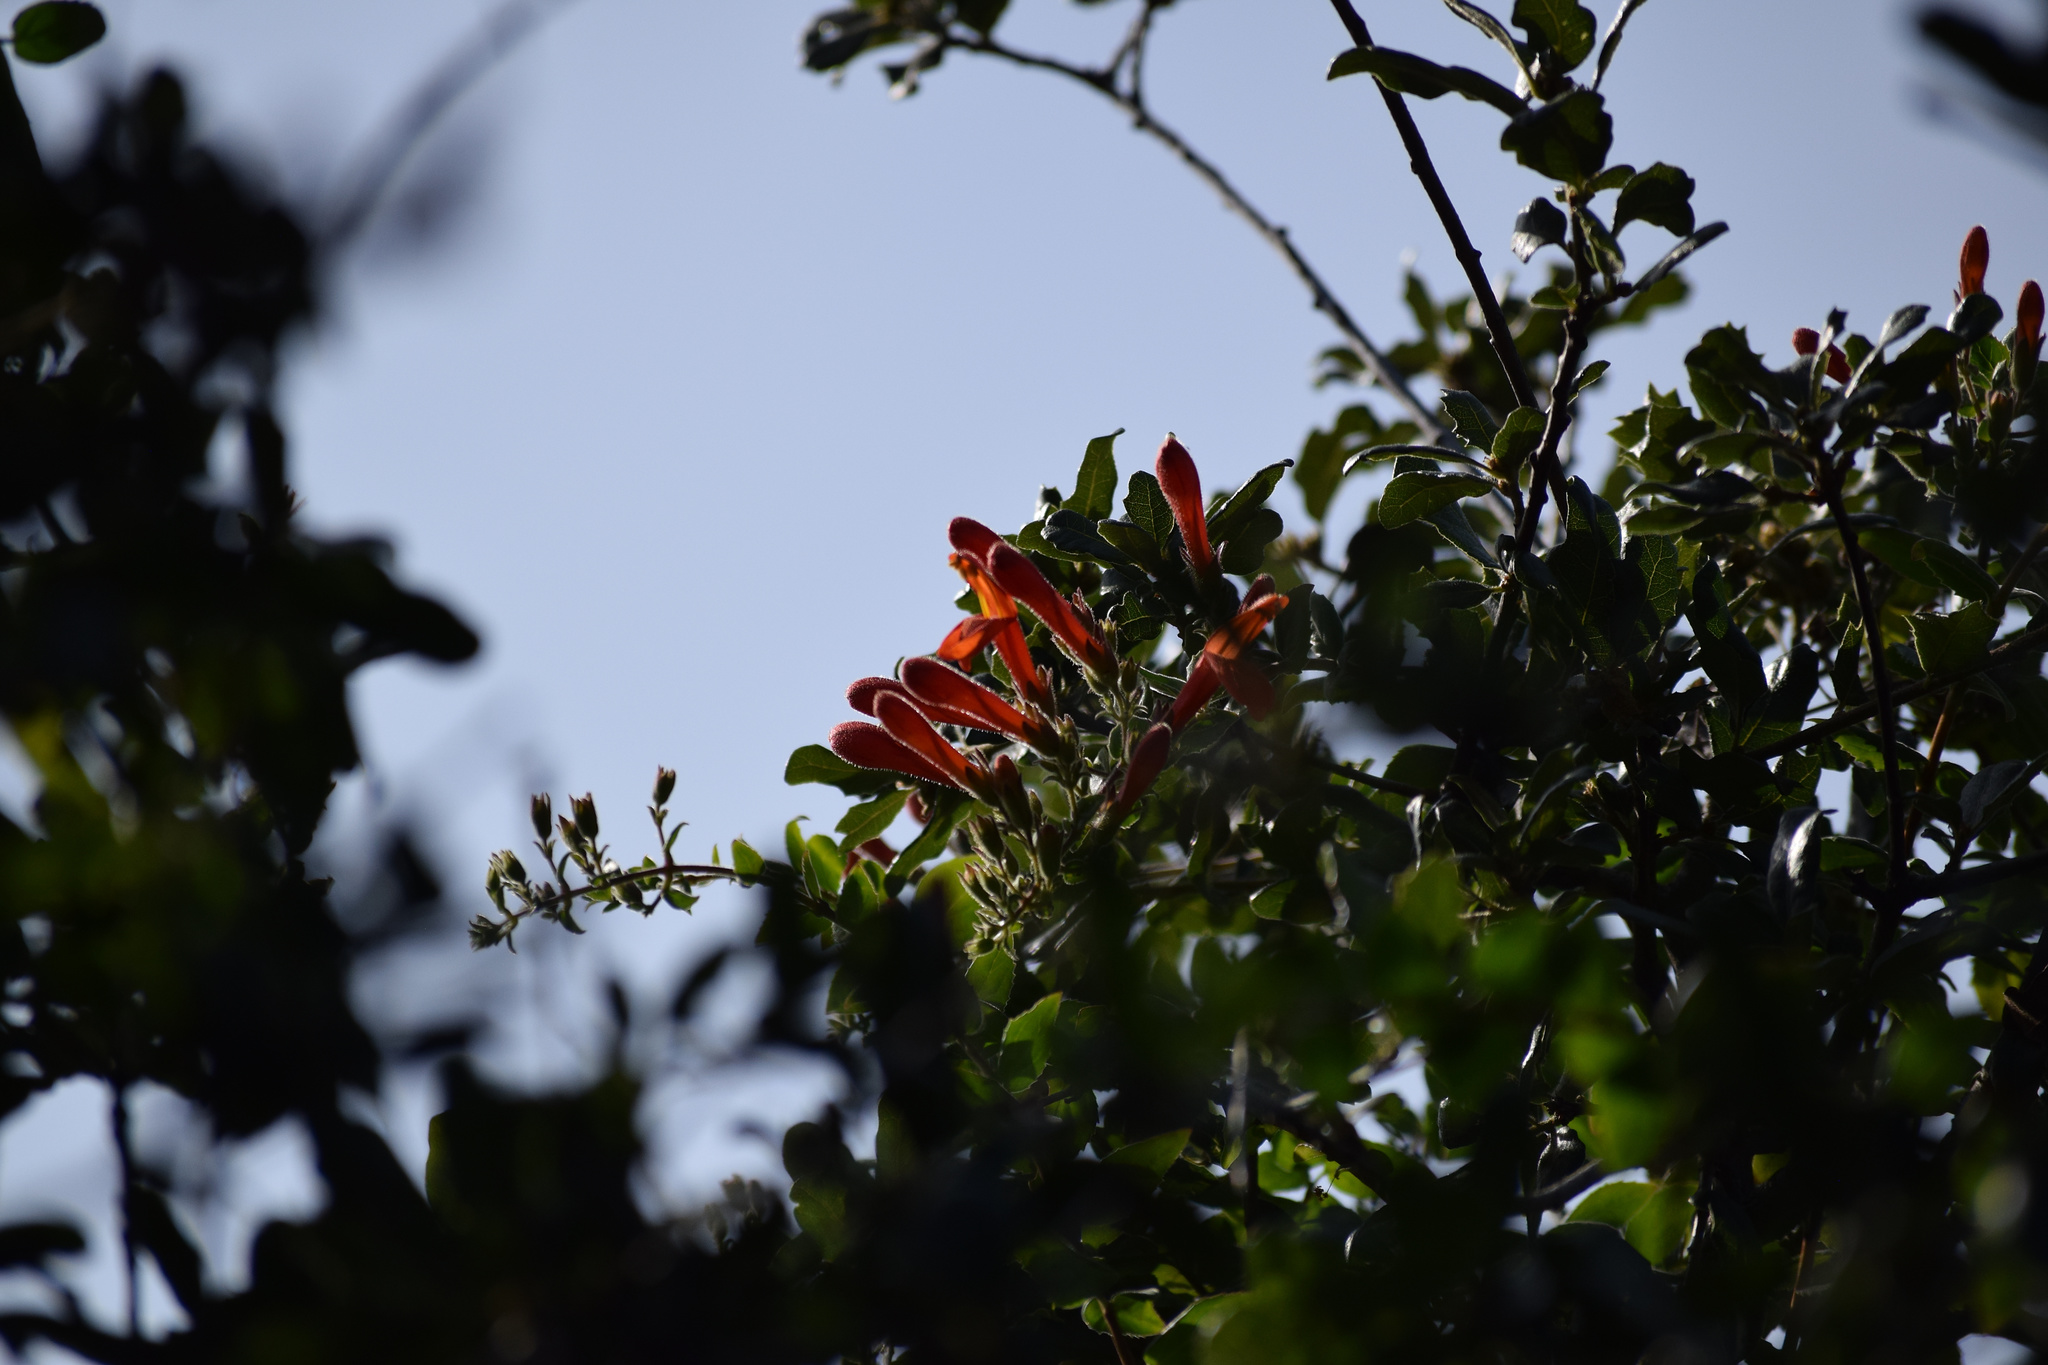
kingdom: Plantae
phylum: Tracheophyta
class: Magnoliopsida
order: Lamiales
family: Plantaginaceae
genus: Keckiella
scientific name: Keckiella cordifolia
